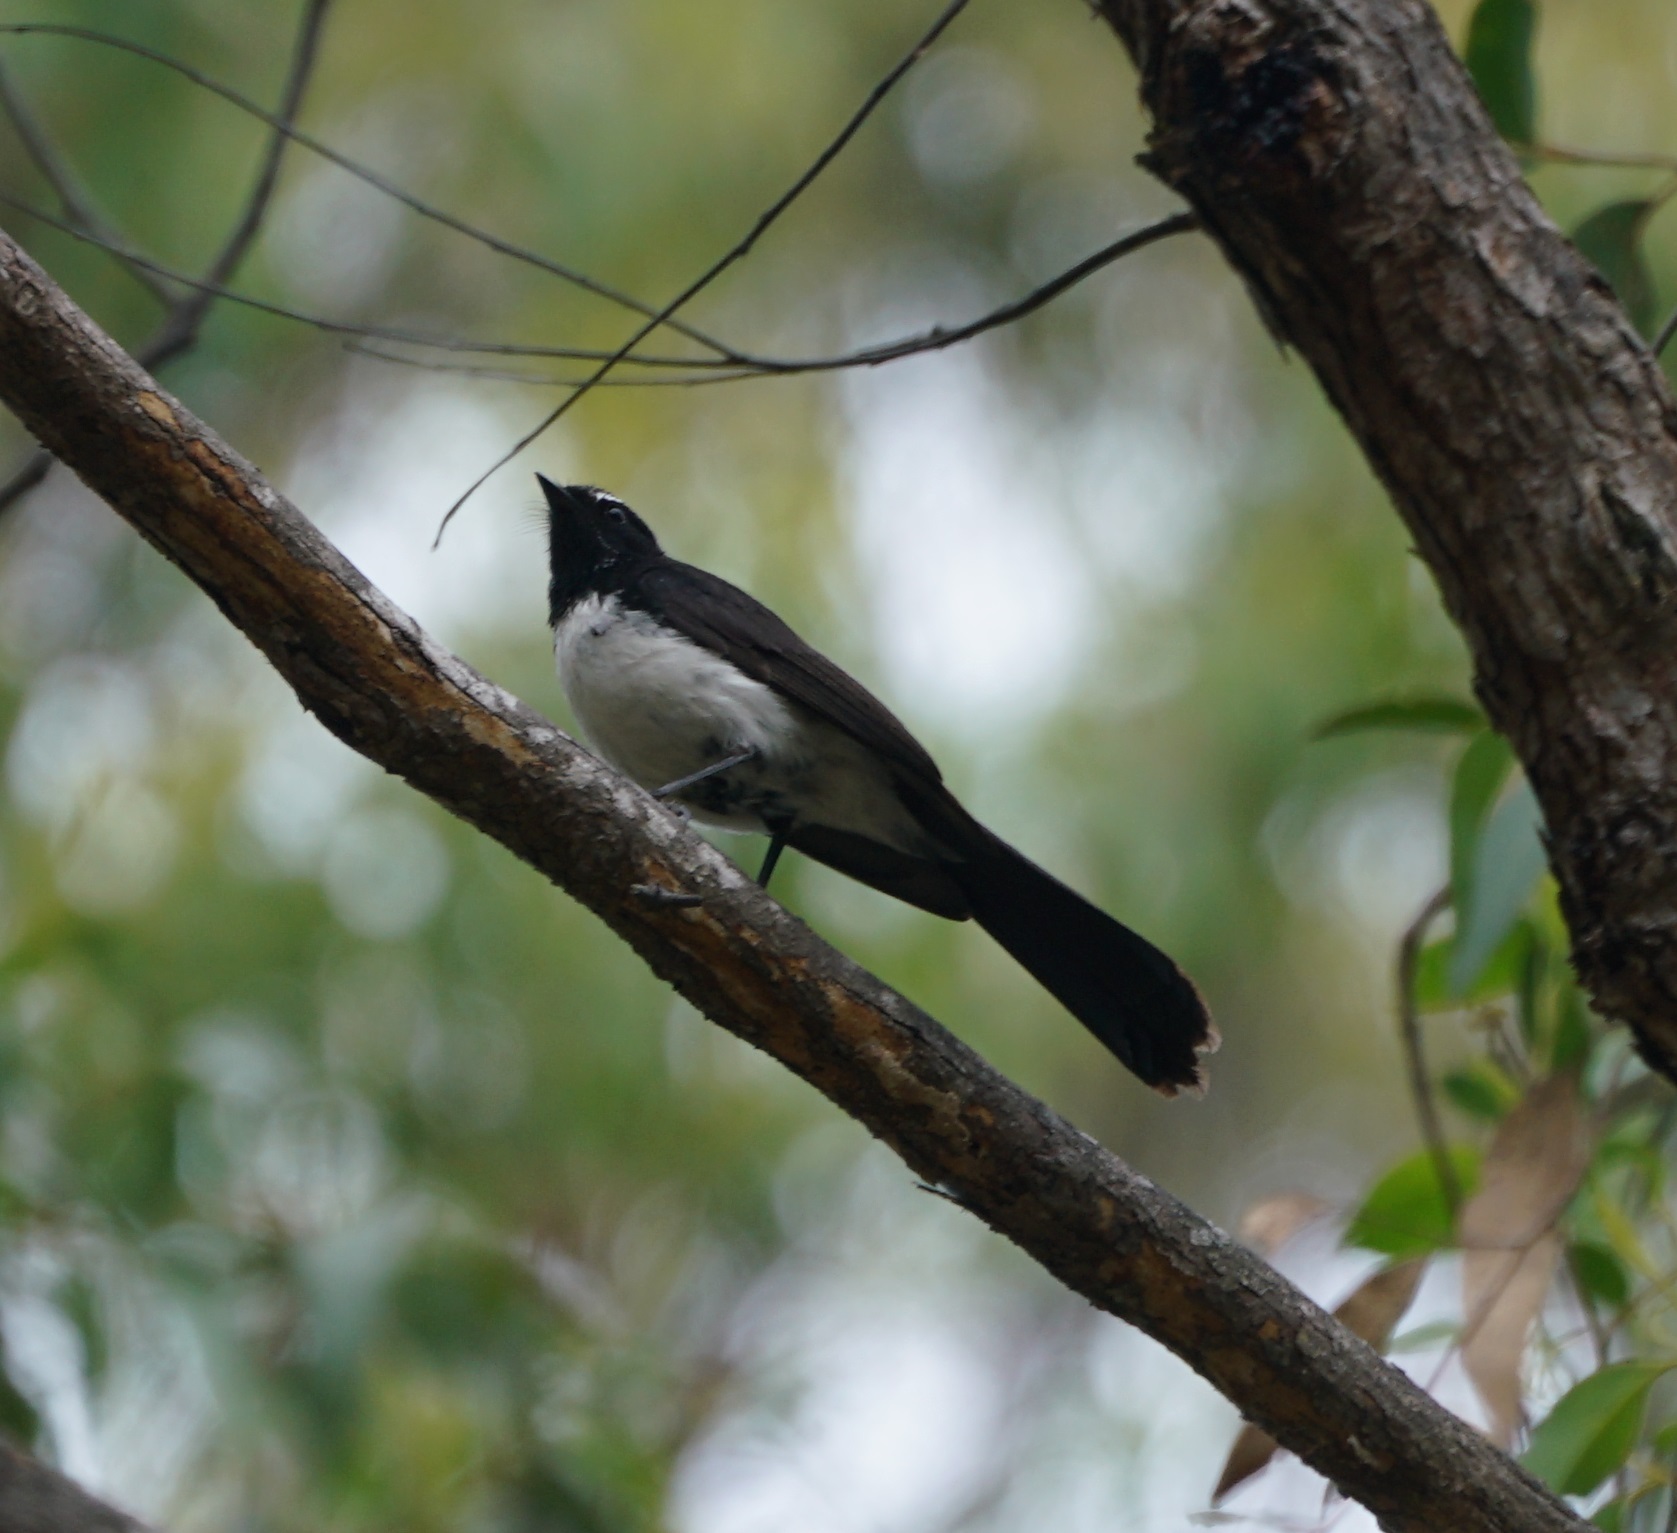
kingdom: Animalia
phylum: Chordata
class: Aves
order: Passeriformes
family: Rhipiduridae
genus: Rhipidura
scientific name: Rhipidura leucophrys
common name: Willie wagtail
